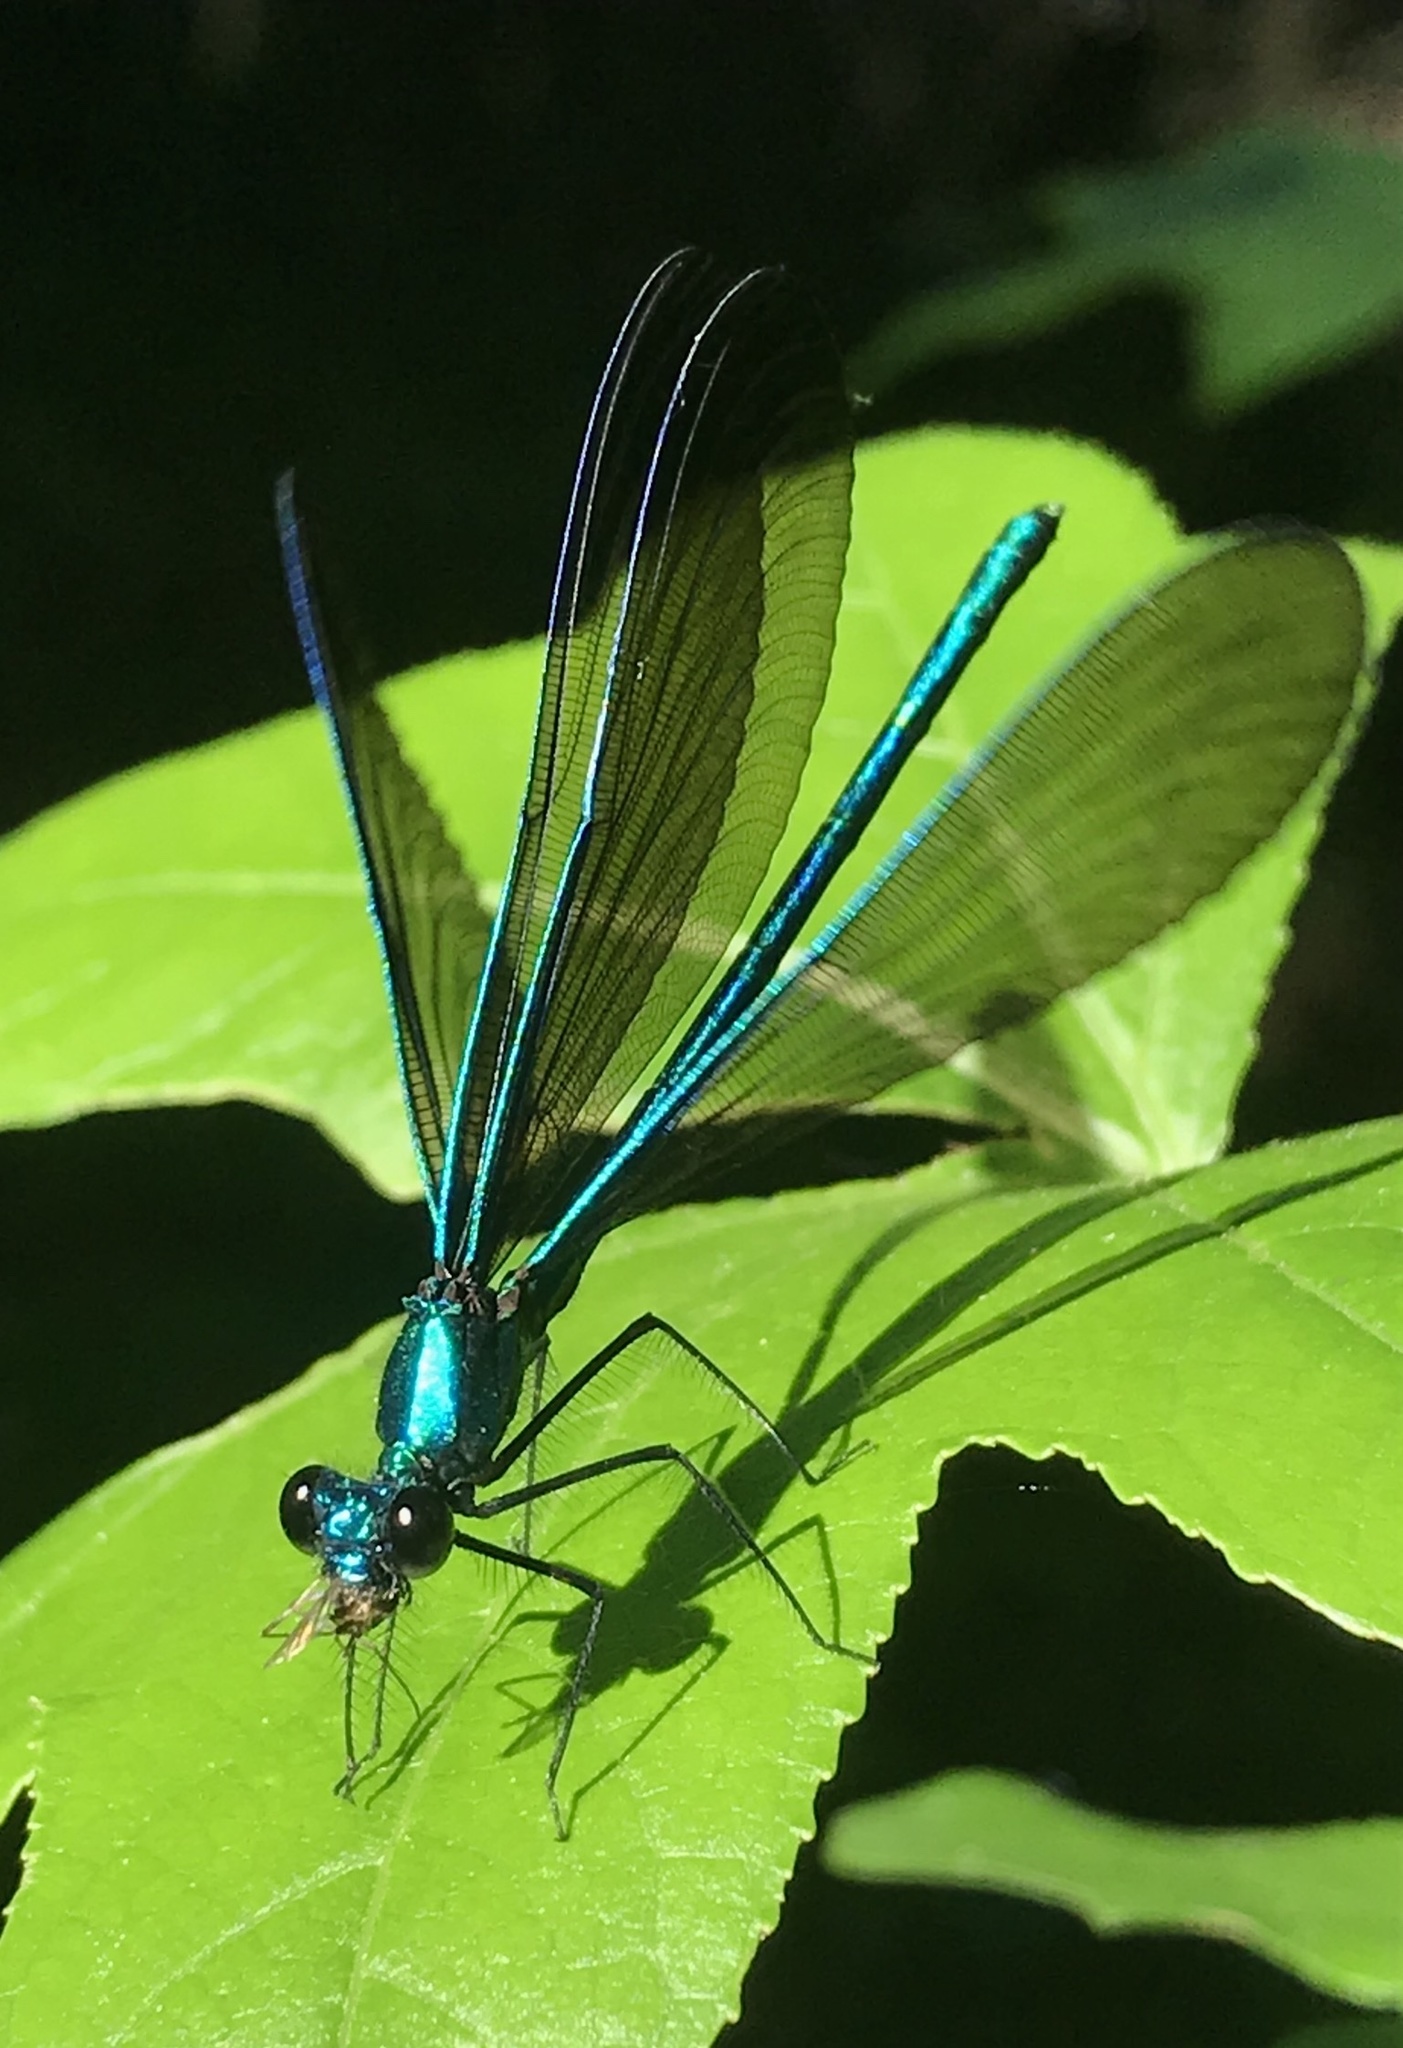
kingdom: Animalia
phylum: Arthropoda
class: Insecta
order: Odonata
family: Calopterygidae
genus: Calopteryx
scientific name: Calopteryx maculata
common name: Ebony jewelwing
